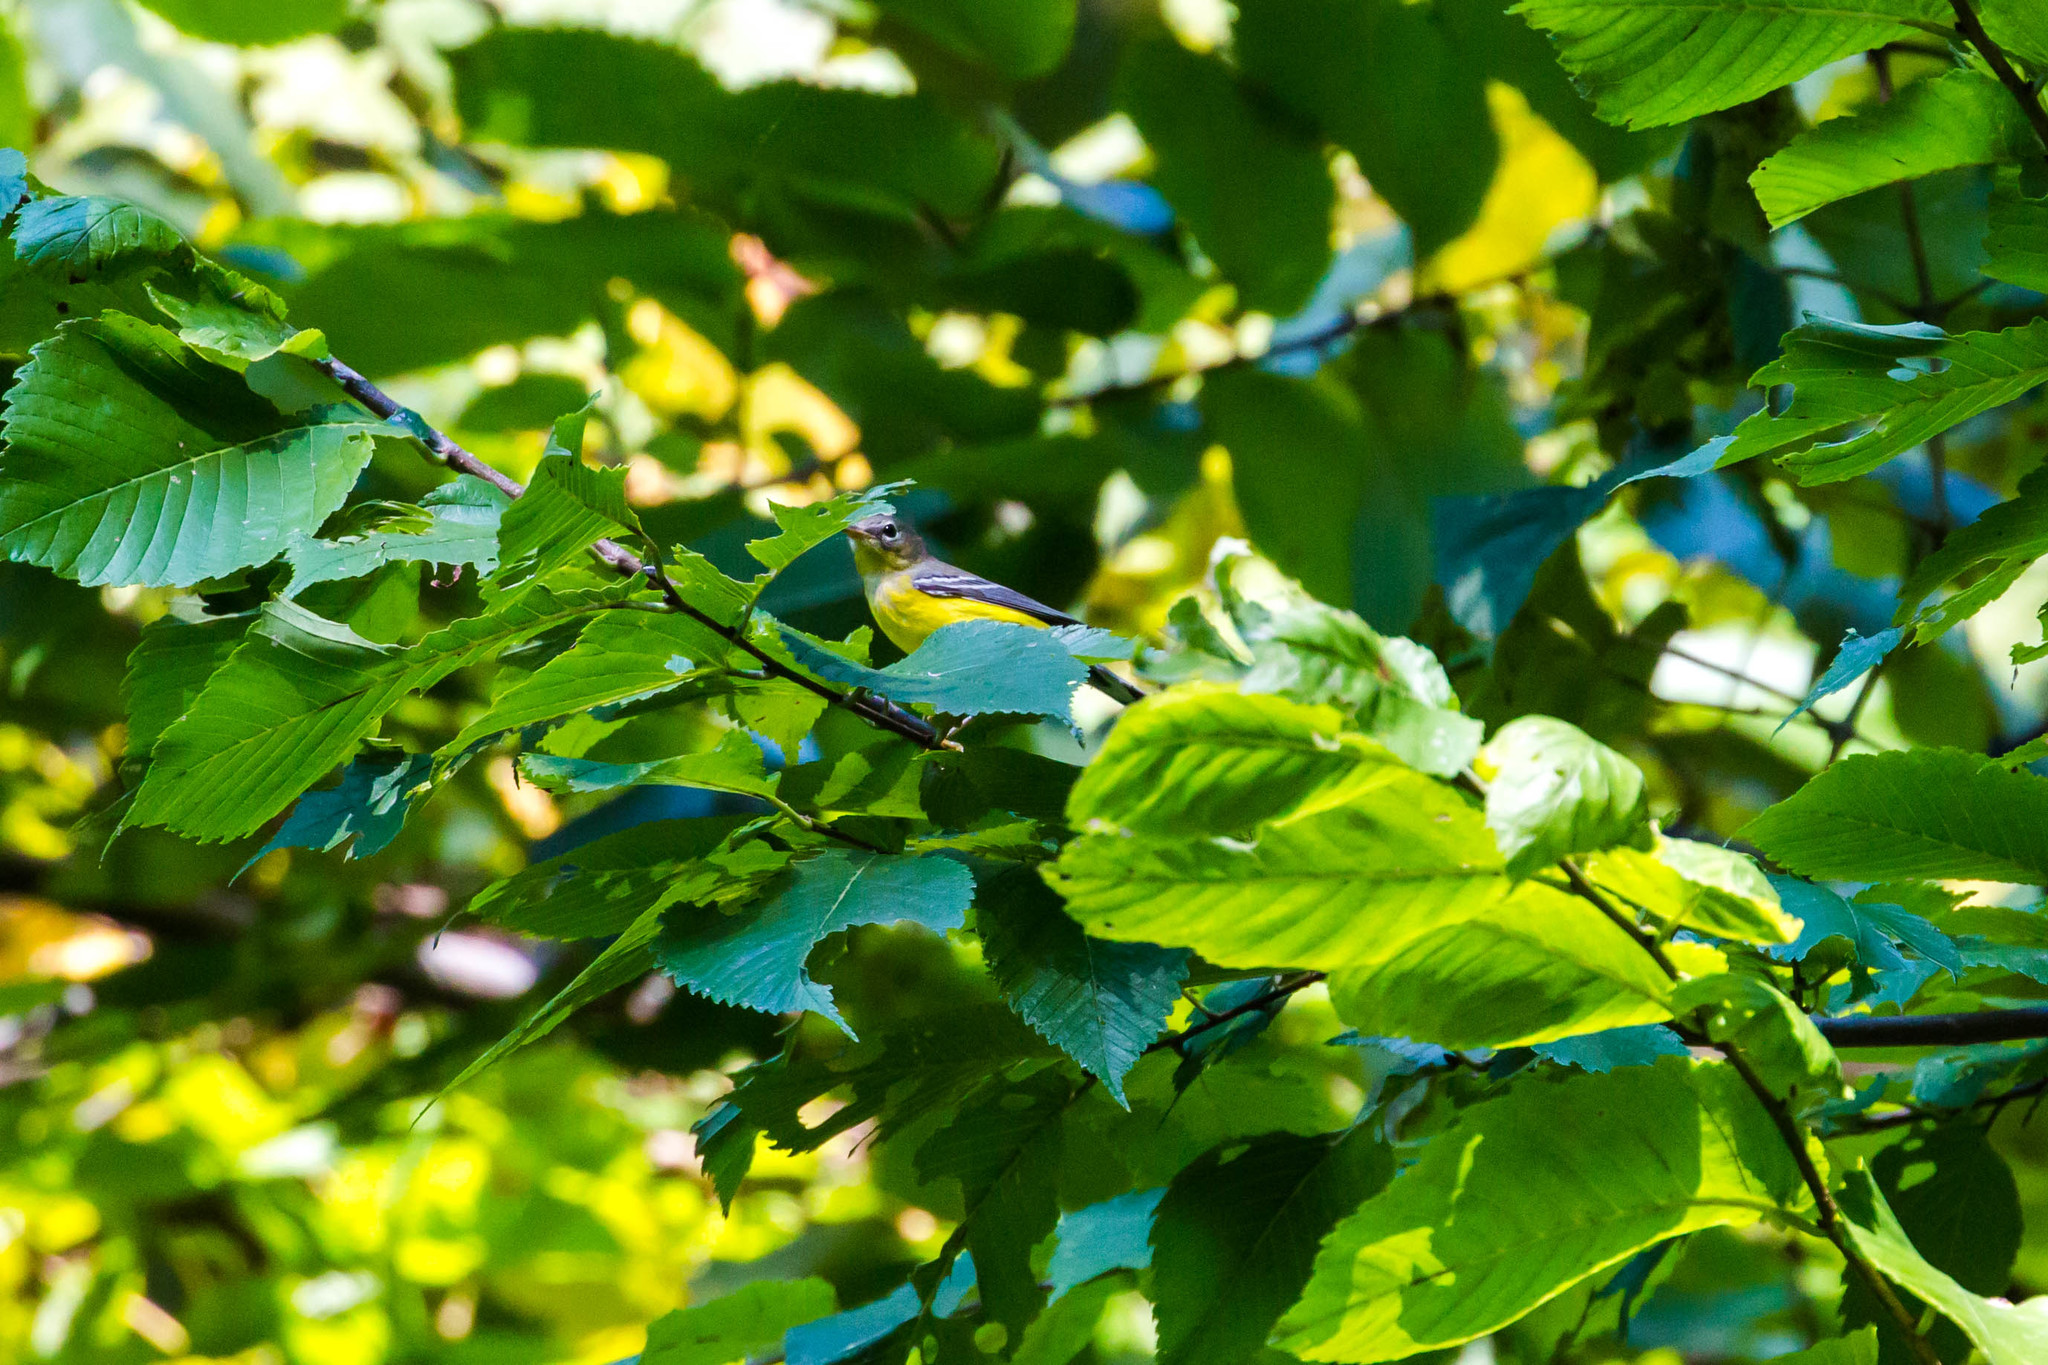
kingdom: Animalia
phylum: Chordata
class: Aves
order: Passeriformes
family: Parulidae
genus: Setophaga
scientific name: Setophaga magnolia
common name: Magnolia warbler
